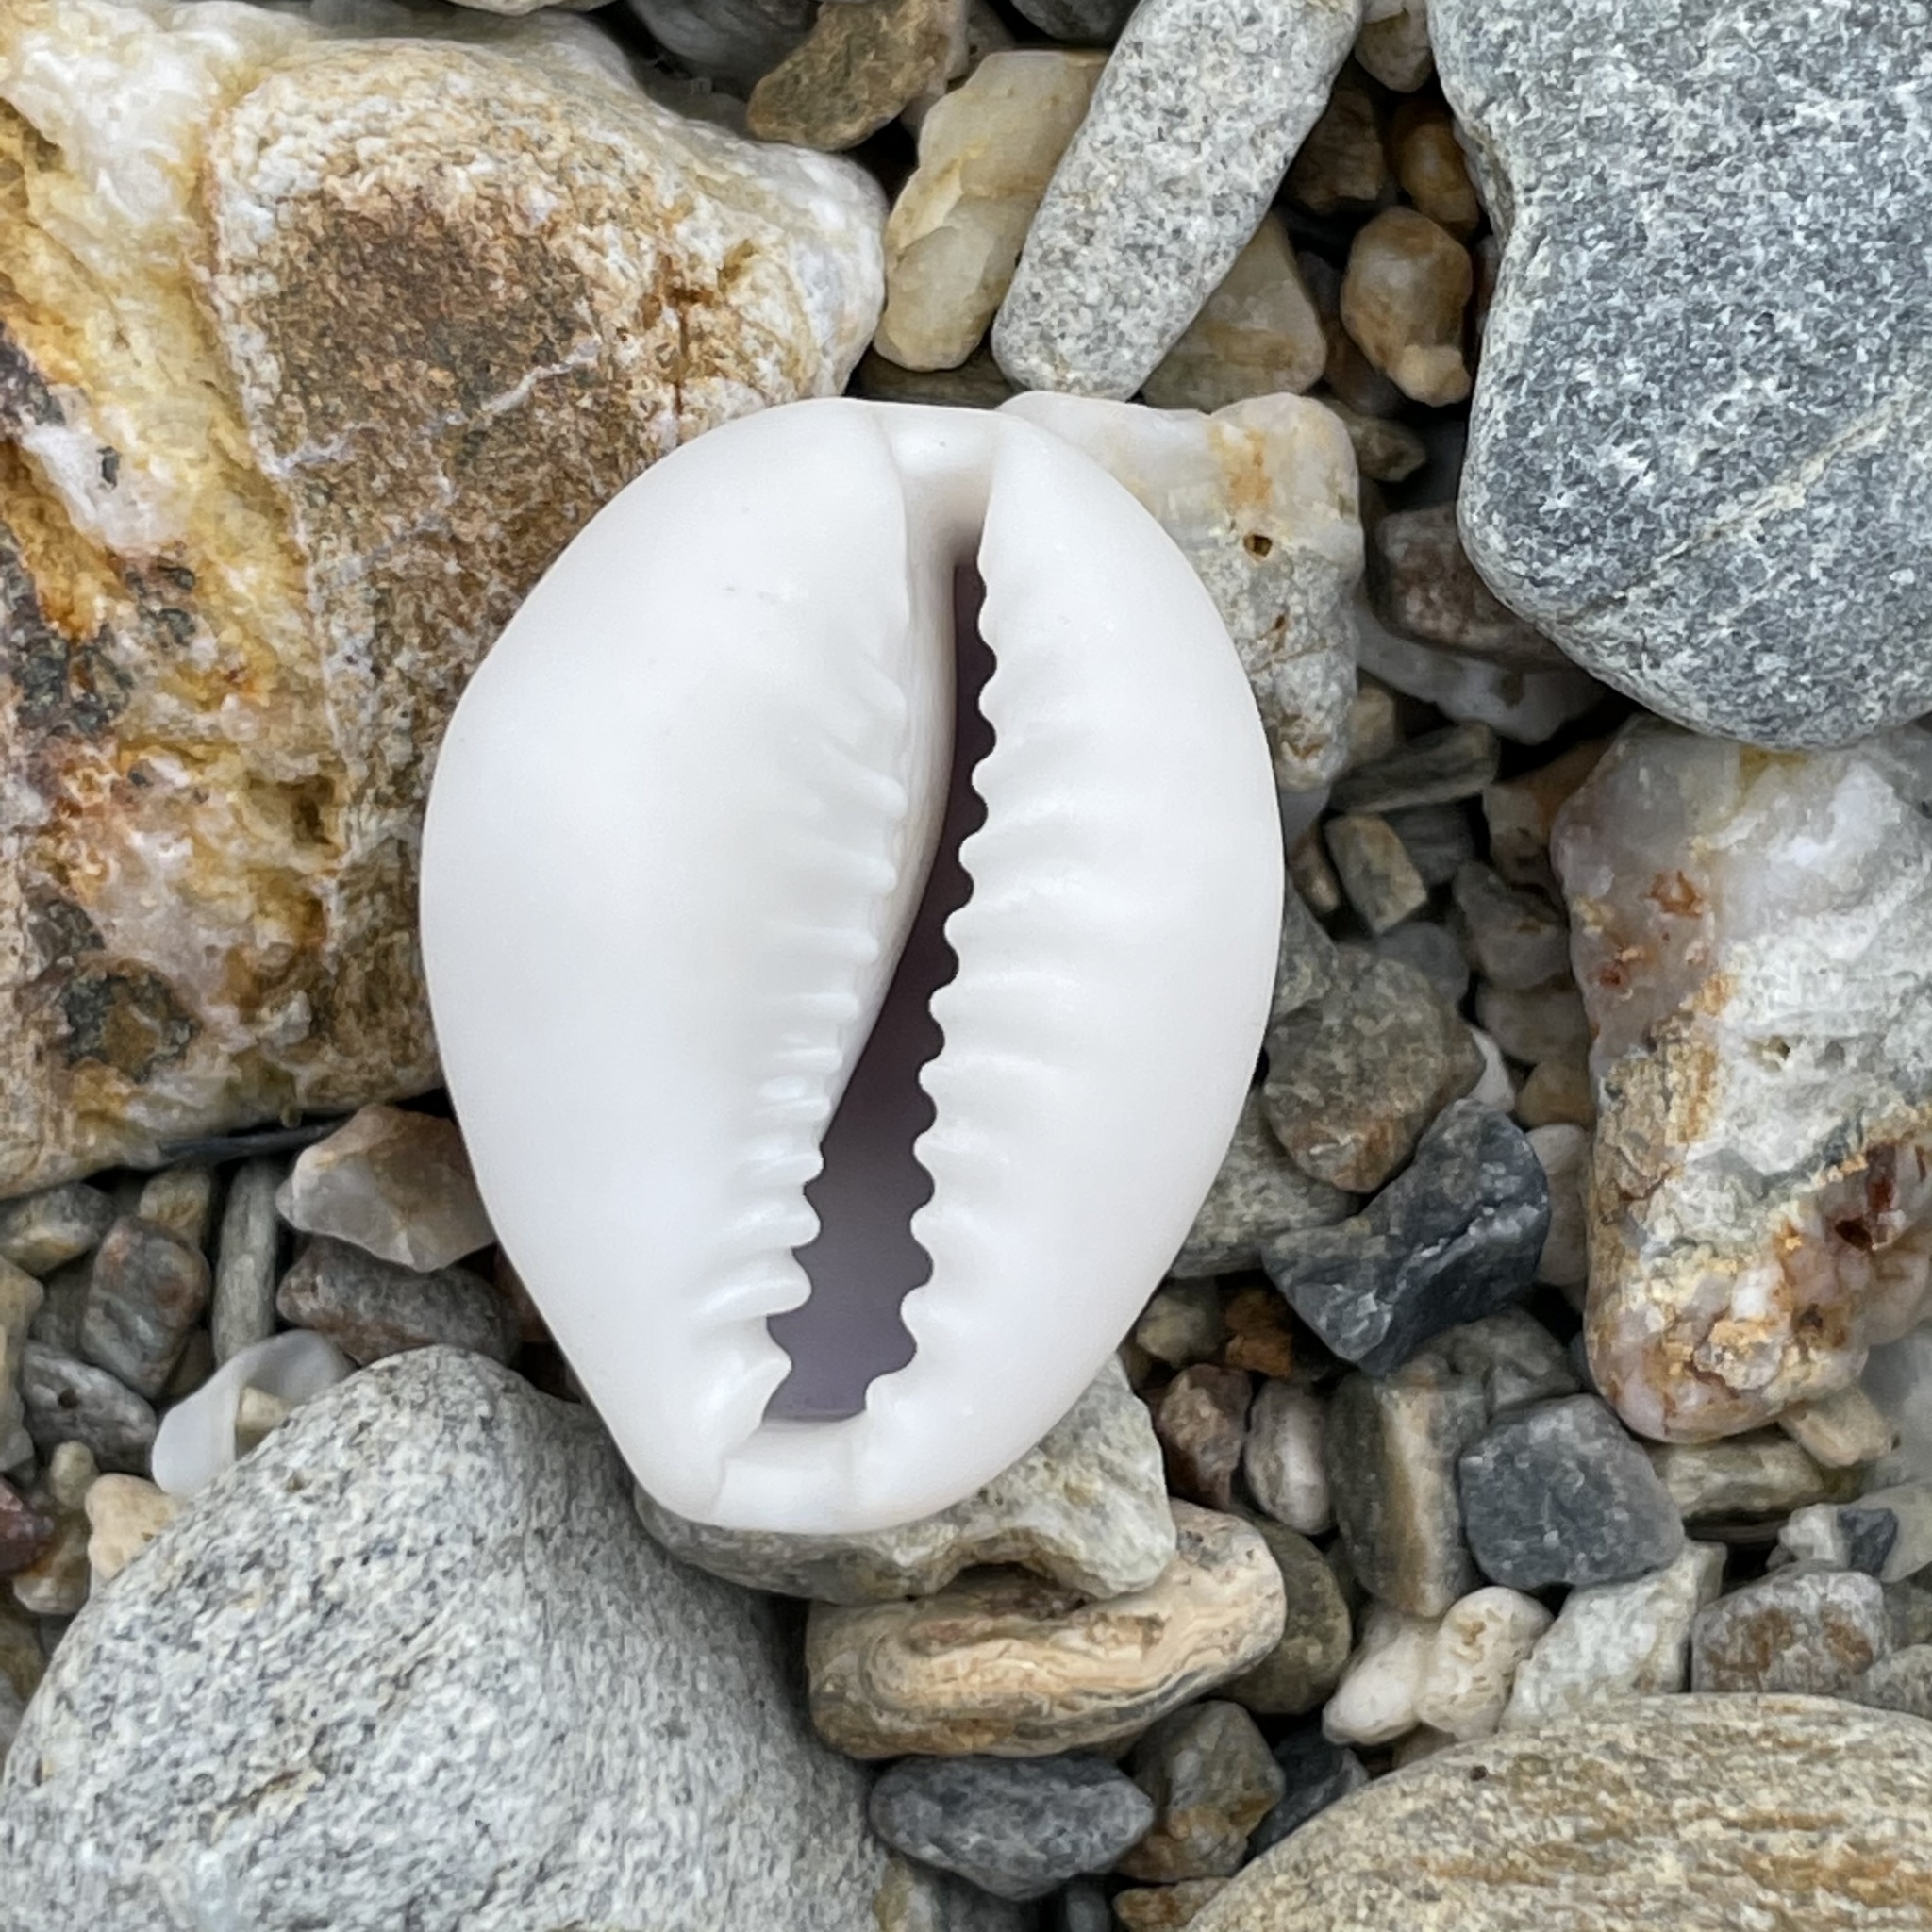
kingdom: Animalia
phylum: Mollusca
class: Gastropoda
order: Littorinimorpha
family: Cypraeidae
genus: Monetaria
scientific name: Monetaria annulus
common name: Ring cowrie
